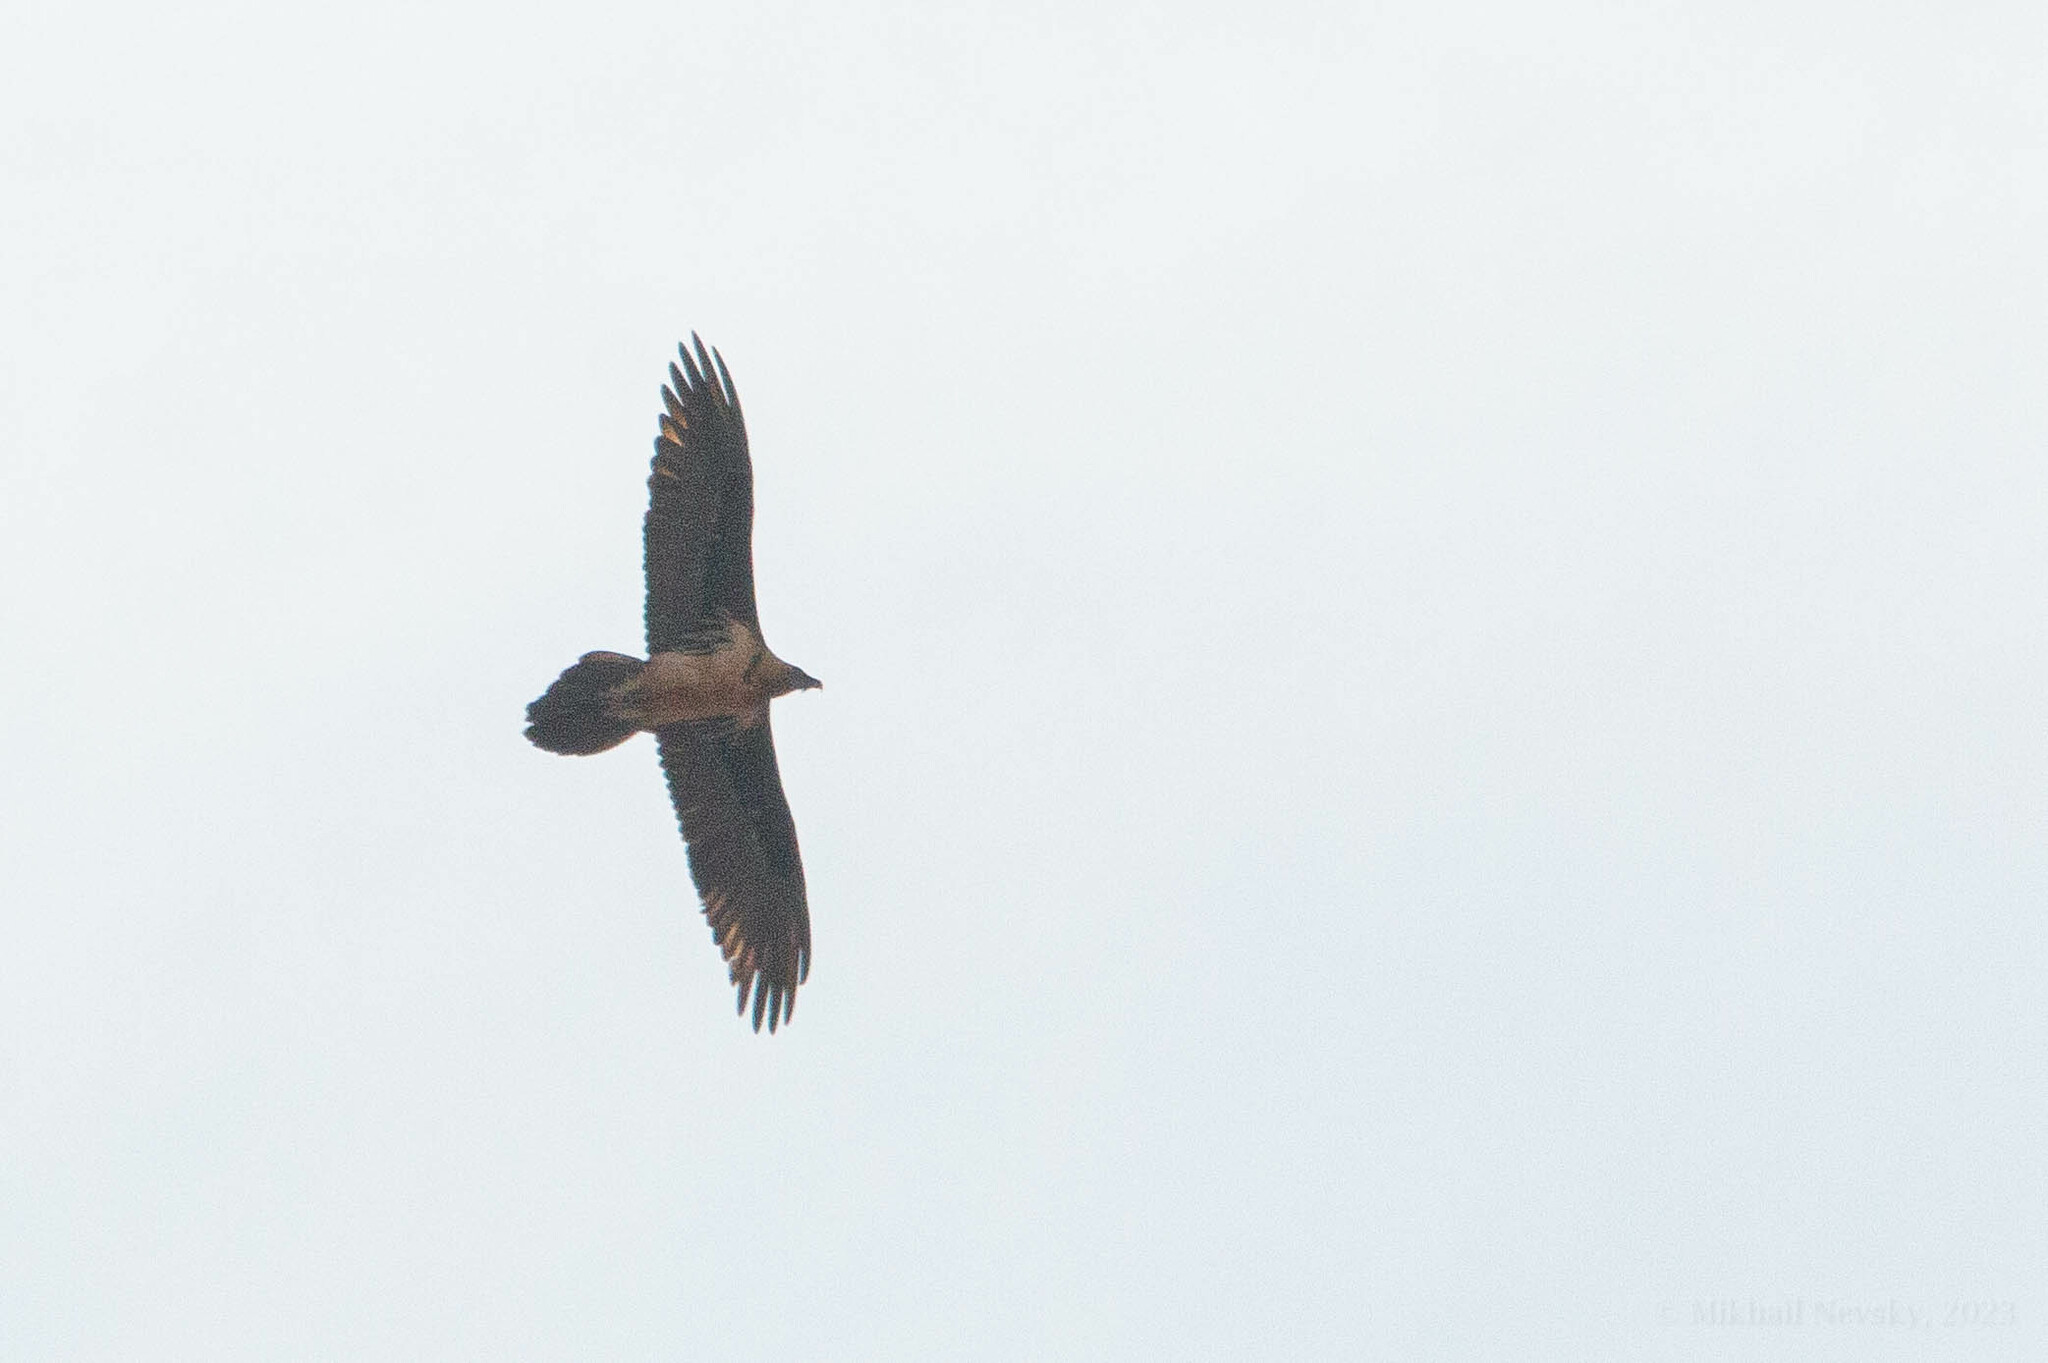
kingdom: Animalia
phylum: Chordata
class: Aves
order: Accipitriformes
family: Accipitridae
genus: Gypaetus
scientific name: Gypaetus barbatus
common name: Bearded vulture
